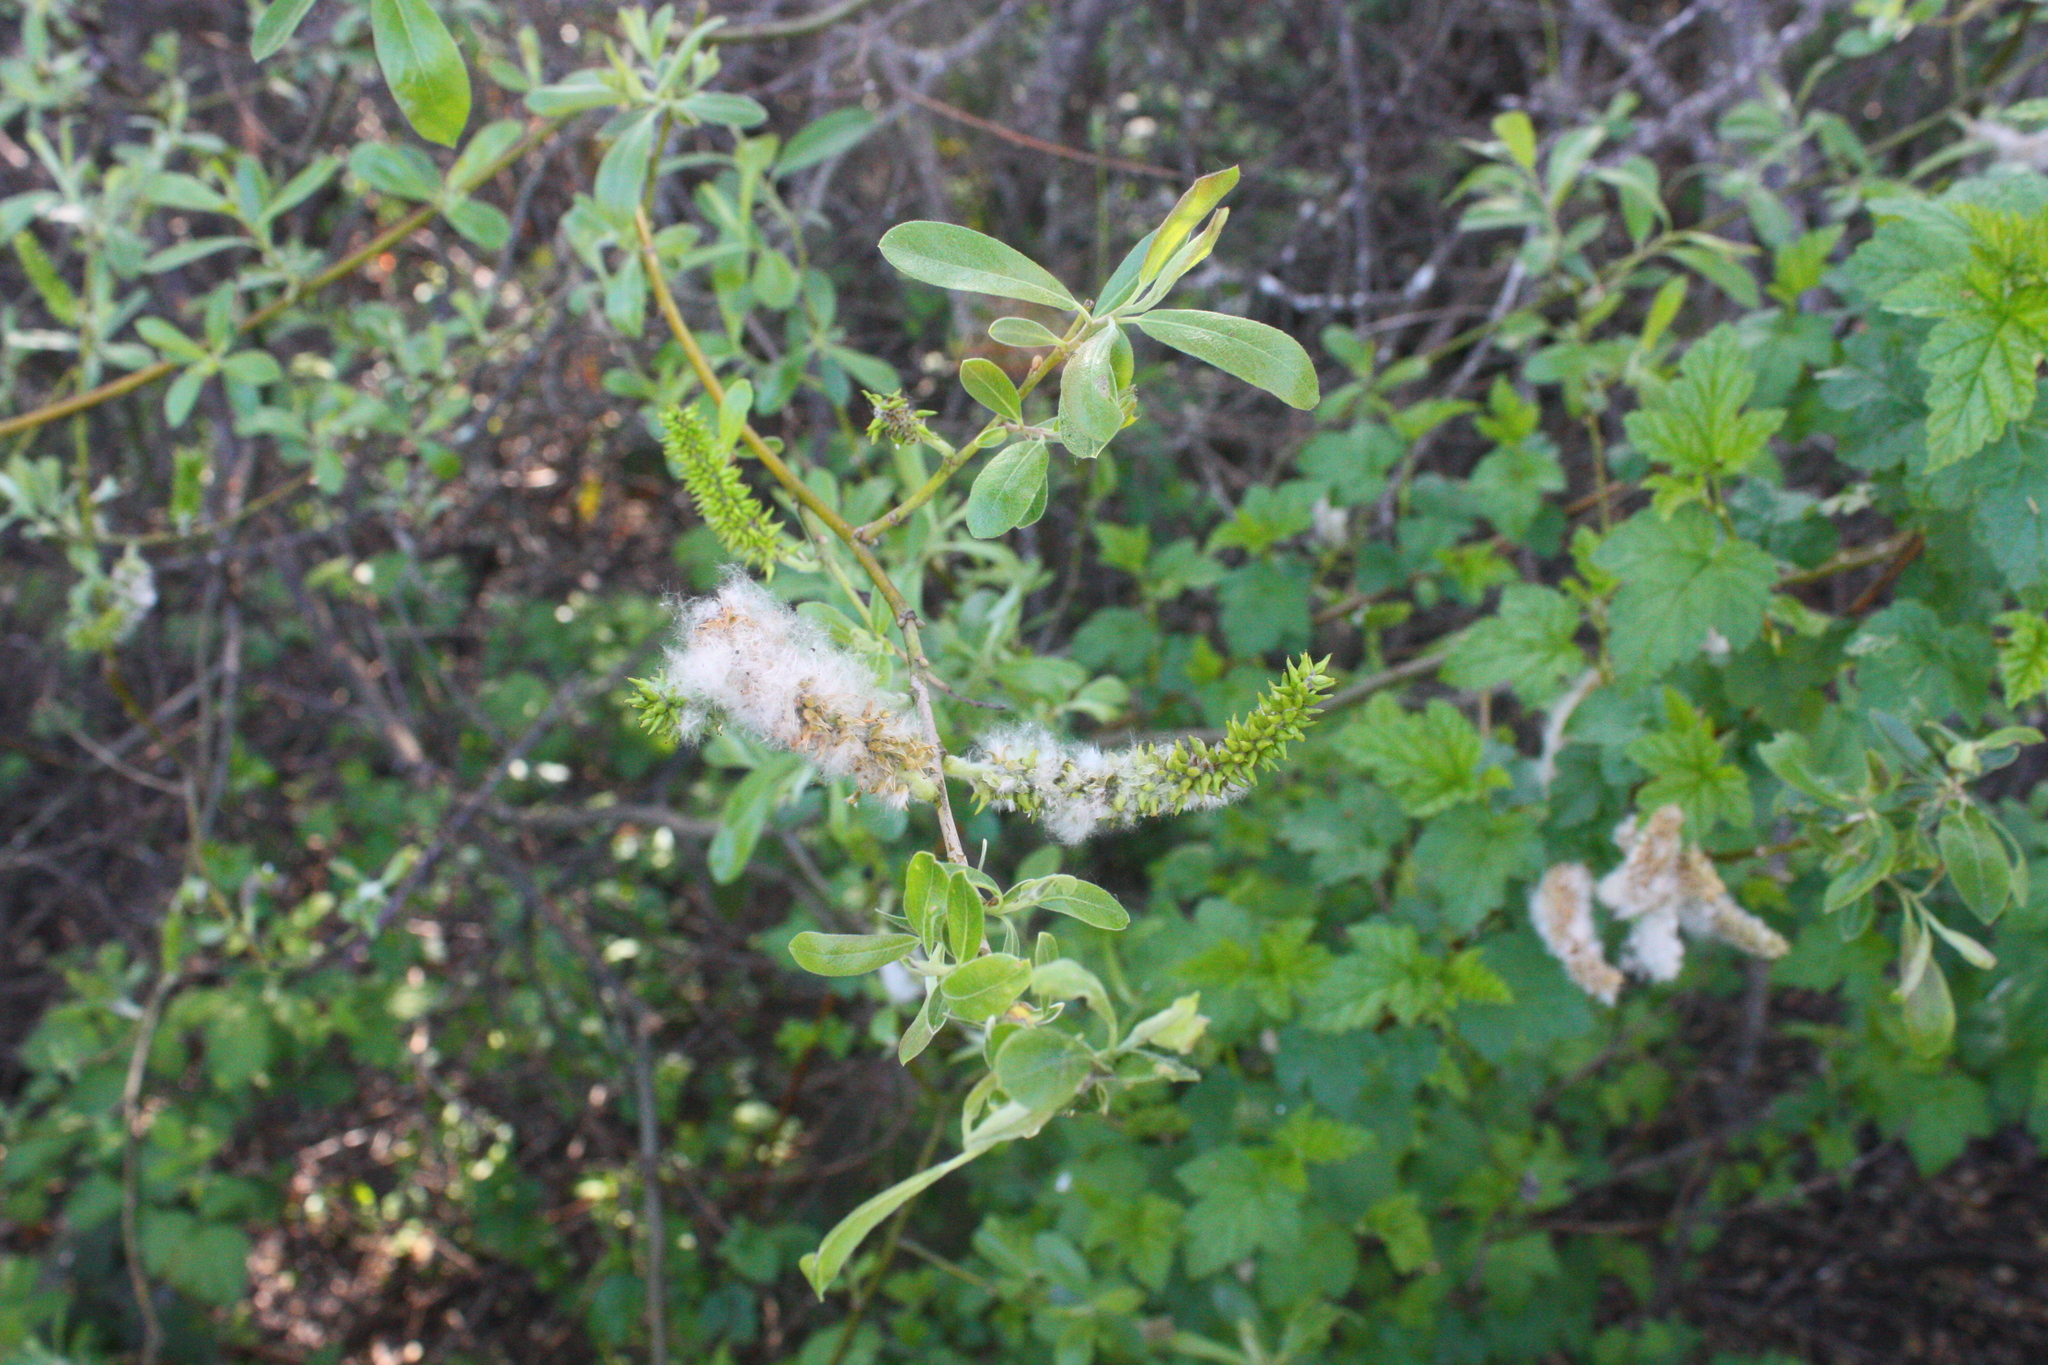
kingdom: Plantae
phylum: Tracheophyta
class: Magnoliopsida
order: Malpighiales
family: Salicaceae
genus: Salix
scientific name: Salix lasiolepis
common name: Arroyo willow
